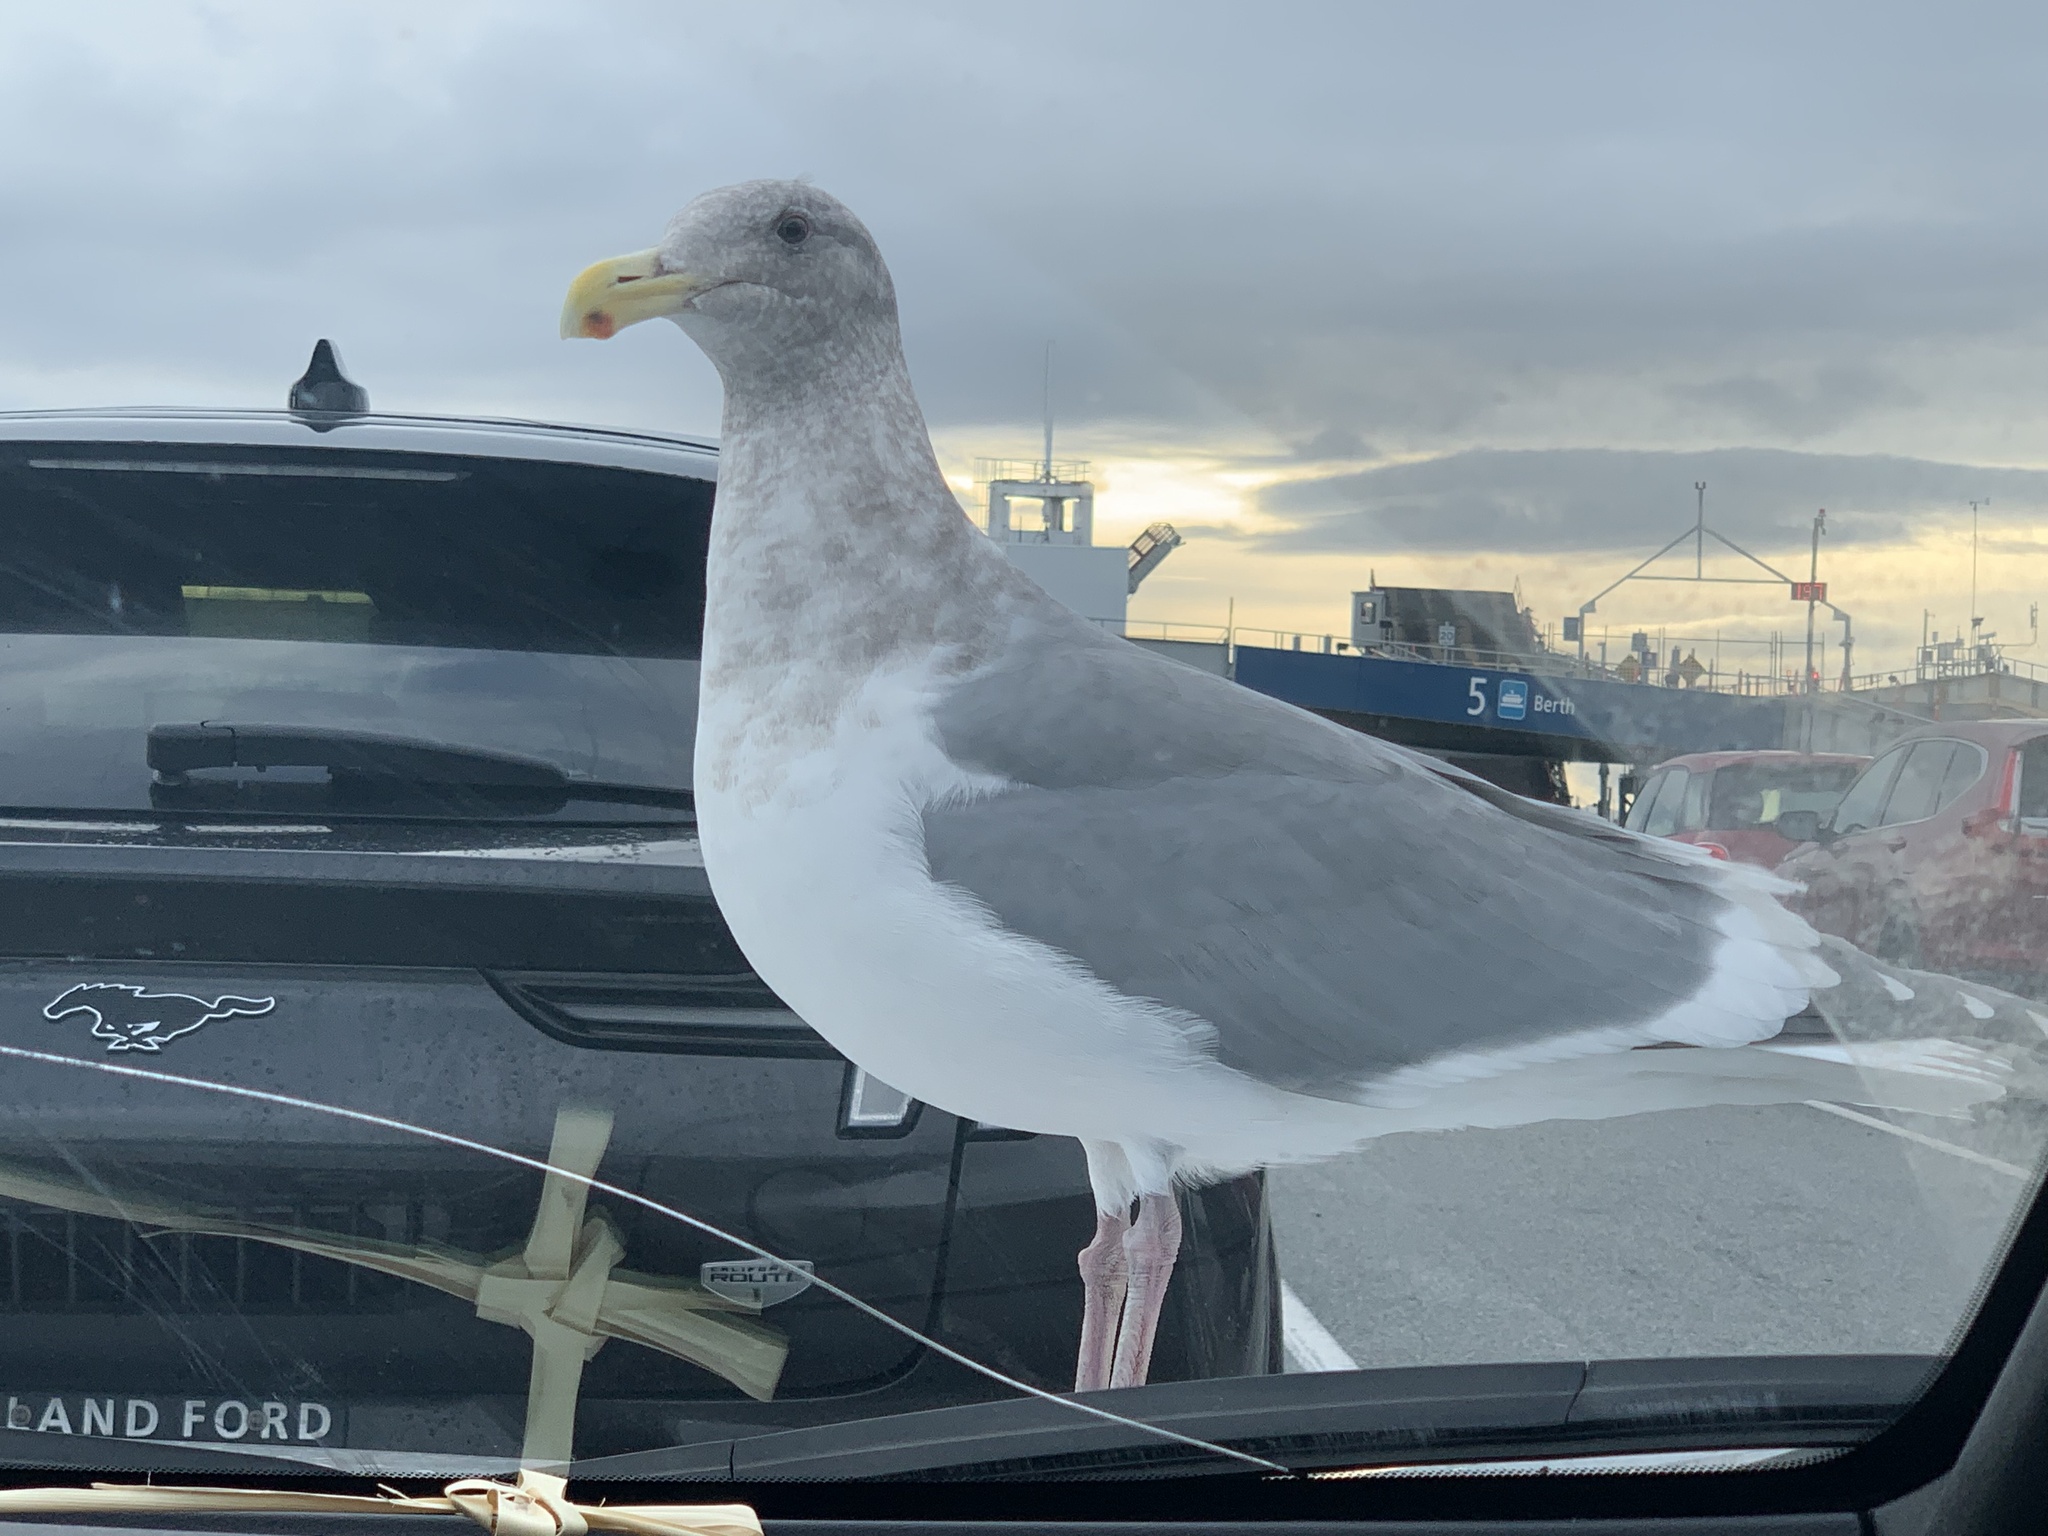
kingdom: Animalia
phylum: Chordata
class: Aves
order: Charadriiformes
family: Laridae
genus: Larus
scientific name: Larus
